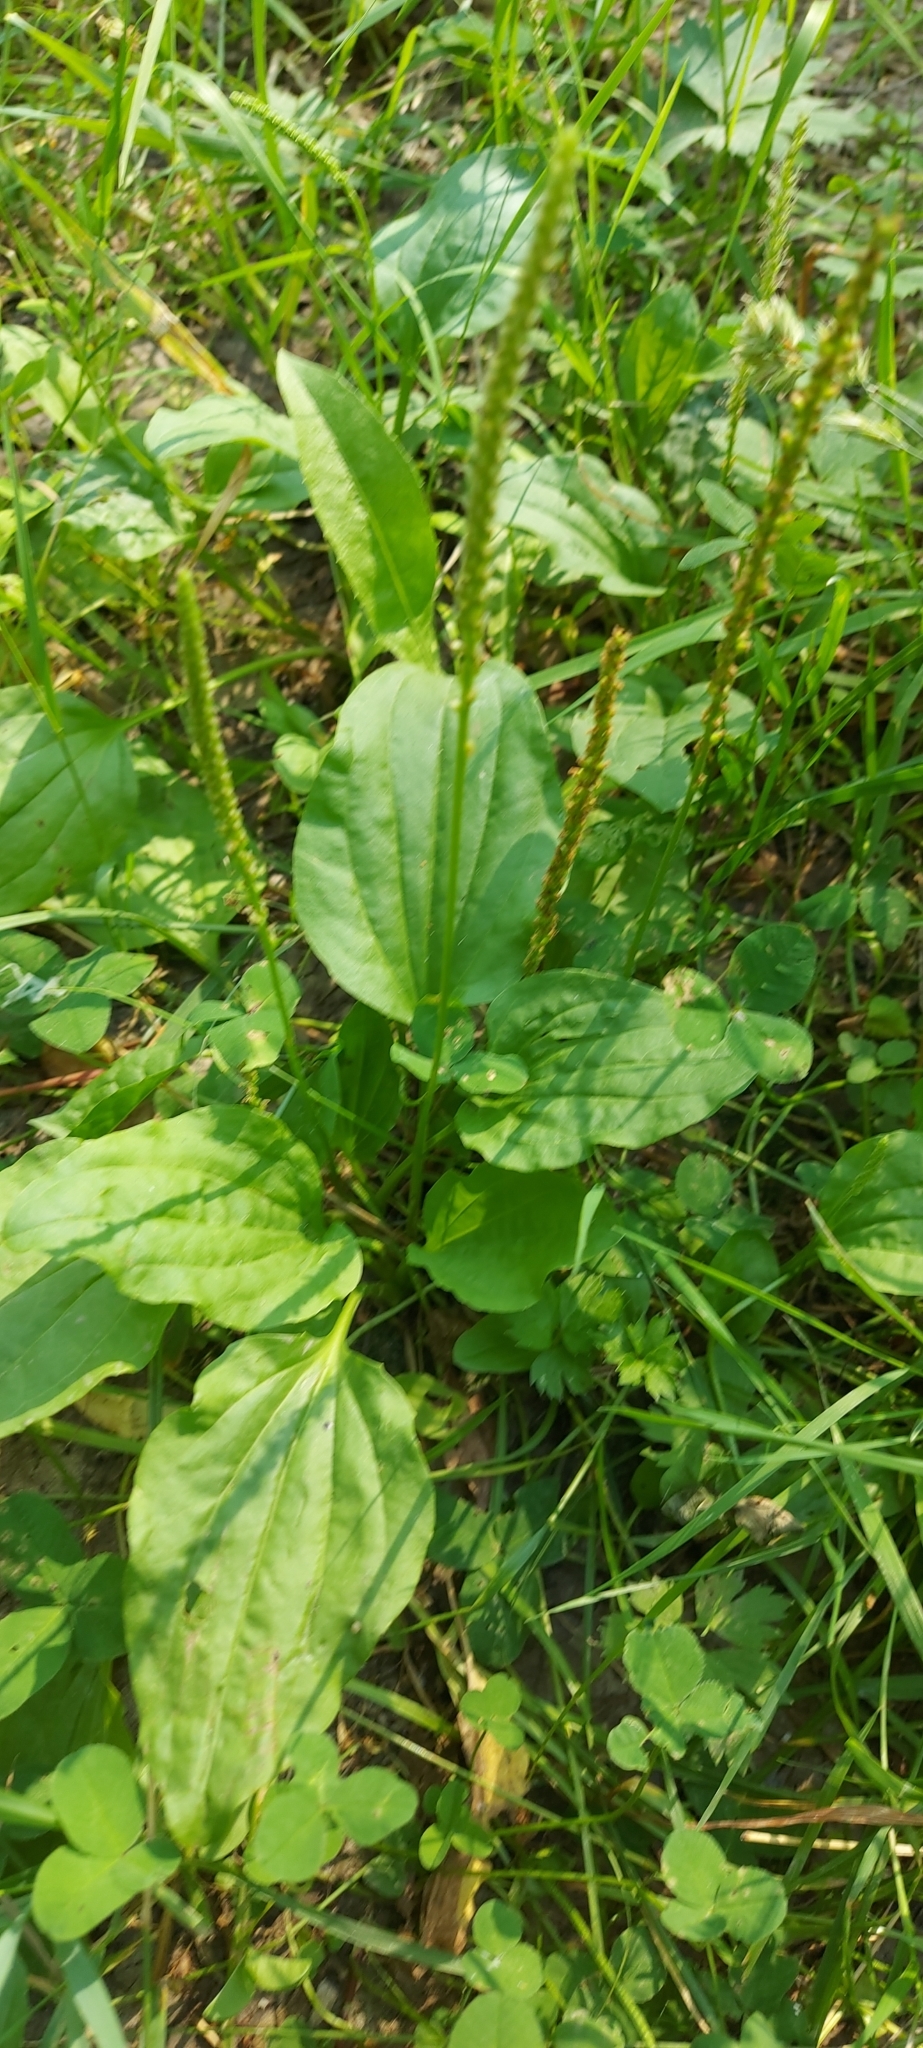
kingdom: Plantae
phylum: Tracheophyta
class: Magnoliopsida
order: Lamiales
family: Plantaginaceae
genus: Plantago
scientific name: Plantago major
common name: Common plantain
